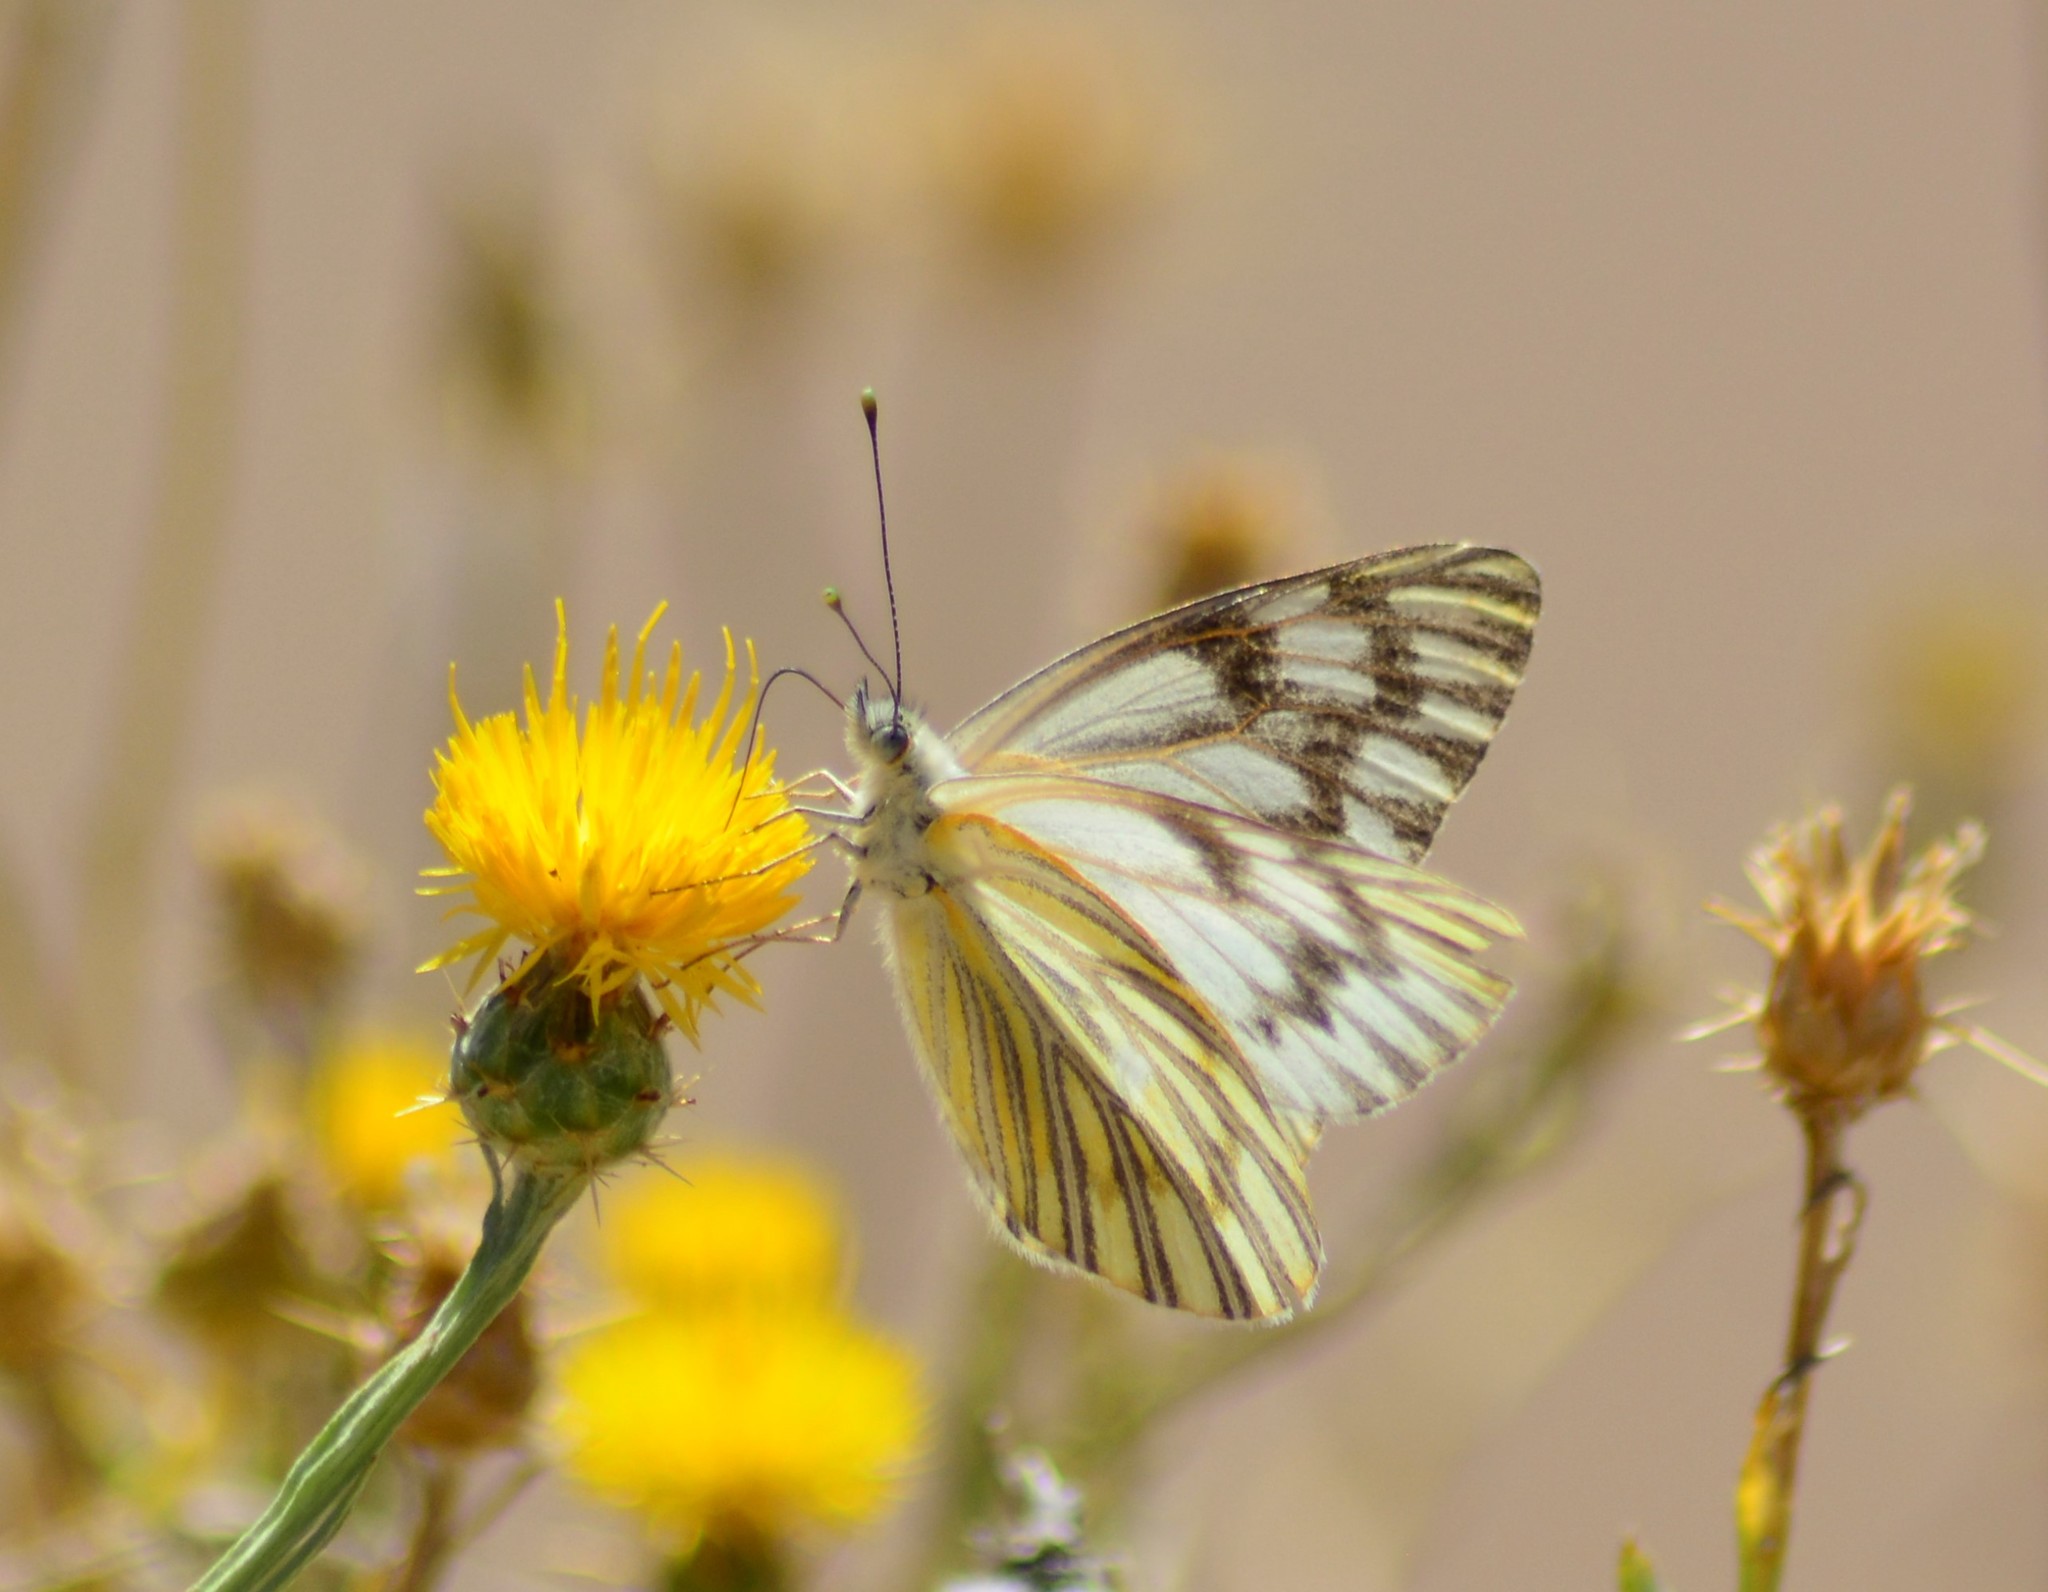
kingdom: Animalia
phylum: Arthropoda
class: Insecta
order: Lepidoptera
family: Pieridae
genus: Tatochila
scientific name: Tatochila mercedis
